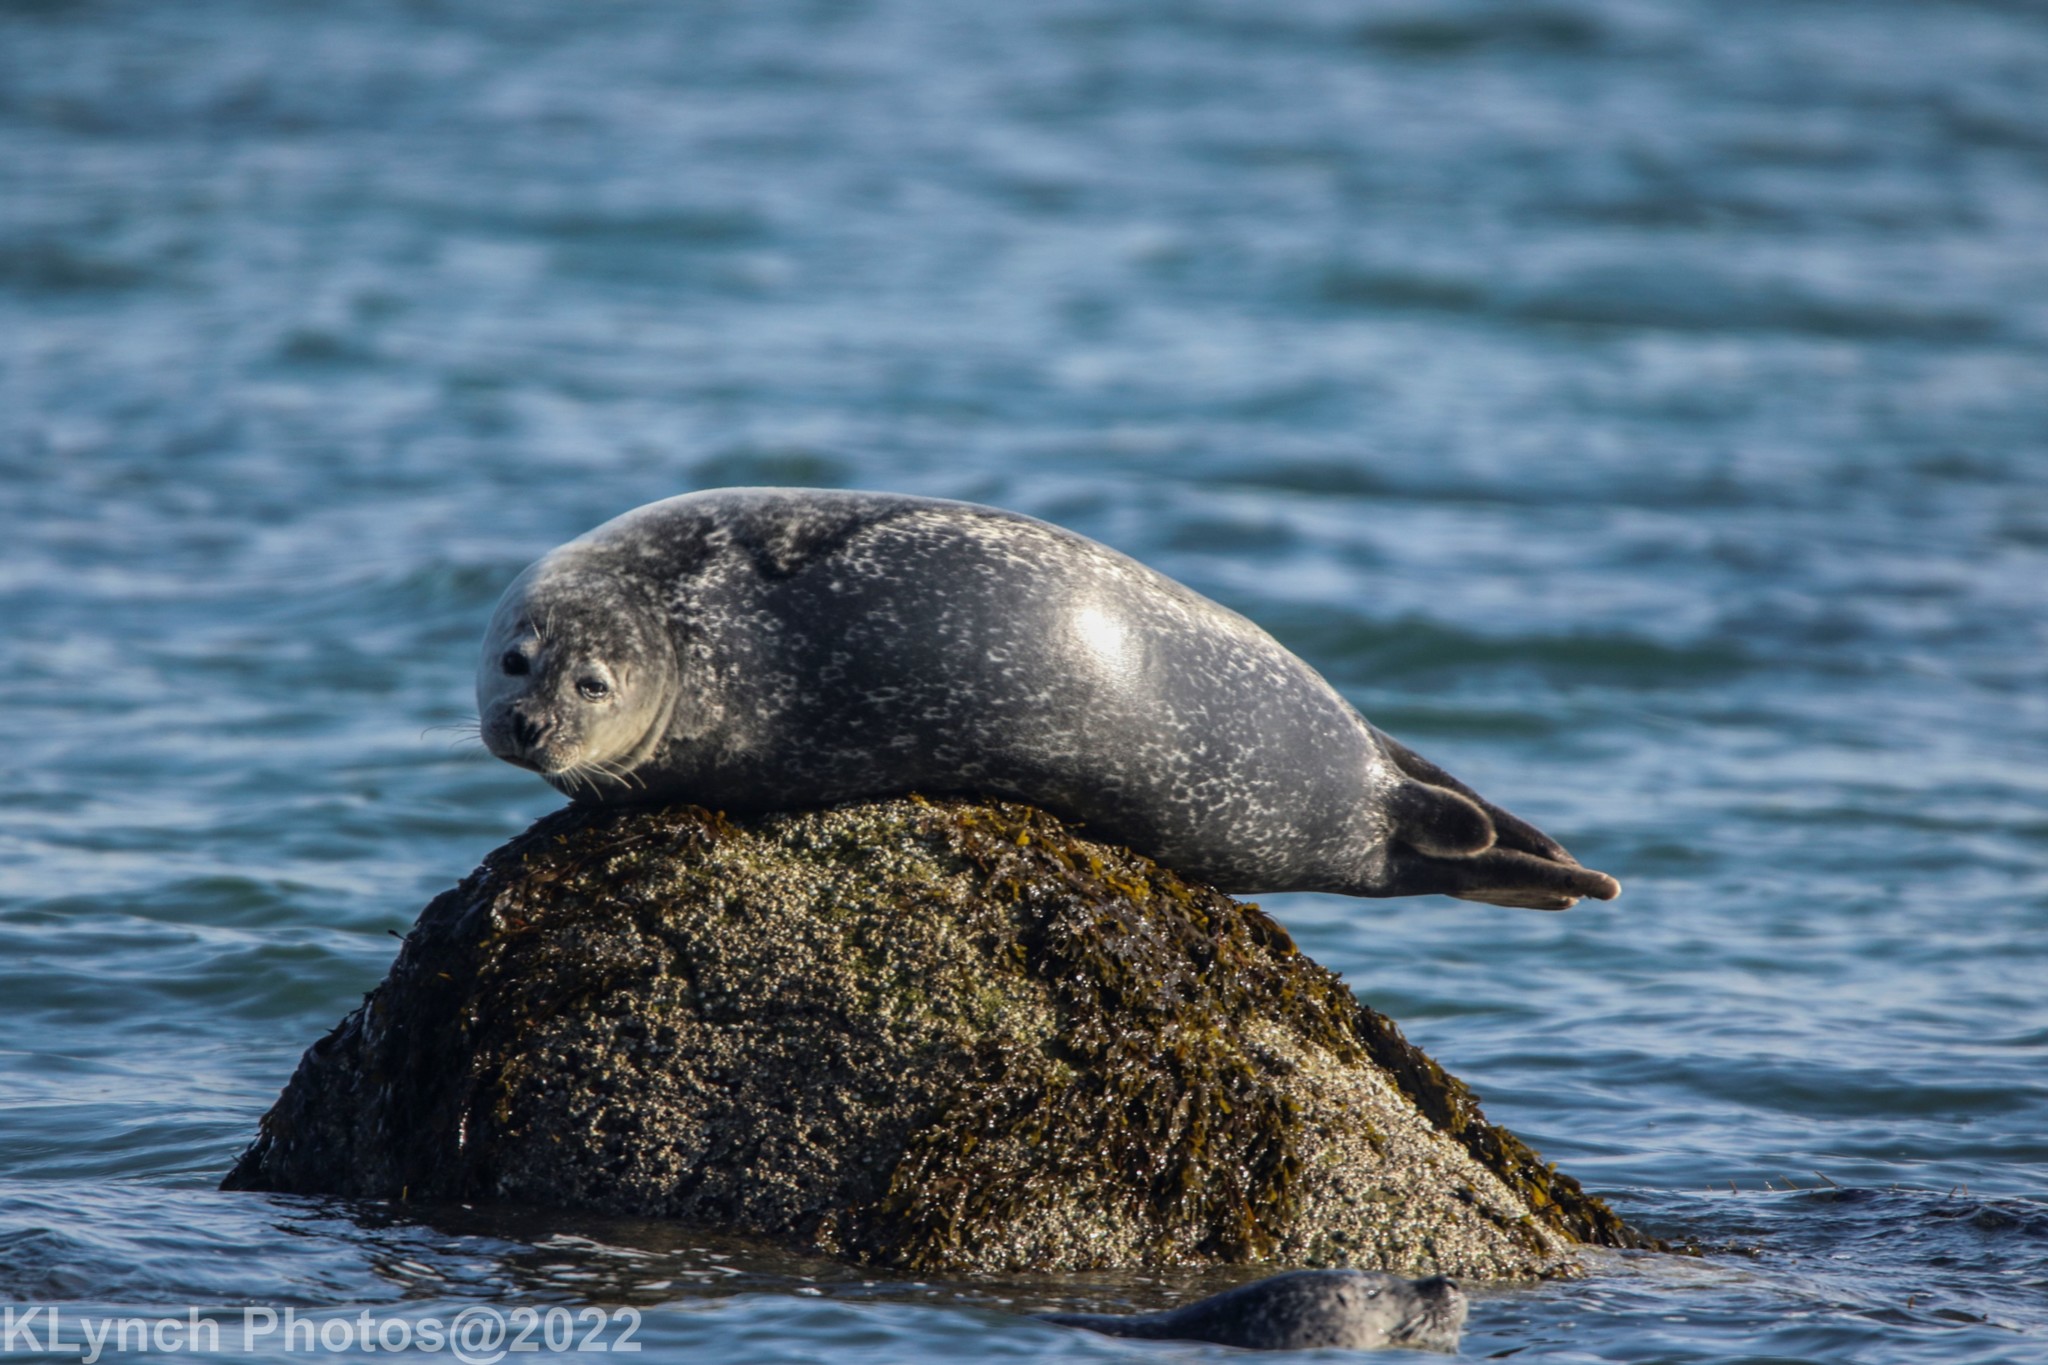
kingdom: Animalia
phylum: Chordata
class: Mammalia
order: Carnivora
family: Phocidae
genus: Phoca
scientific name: Phoca vitulina
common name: Harbor seal
